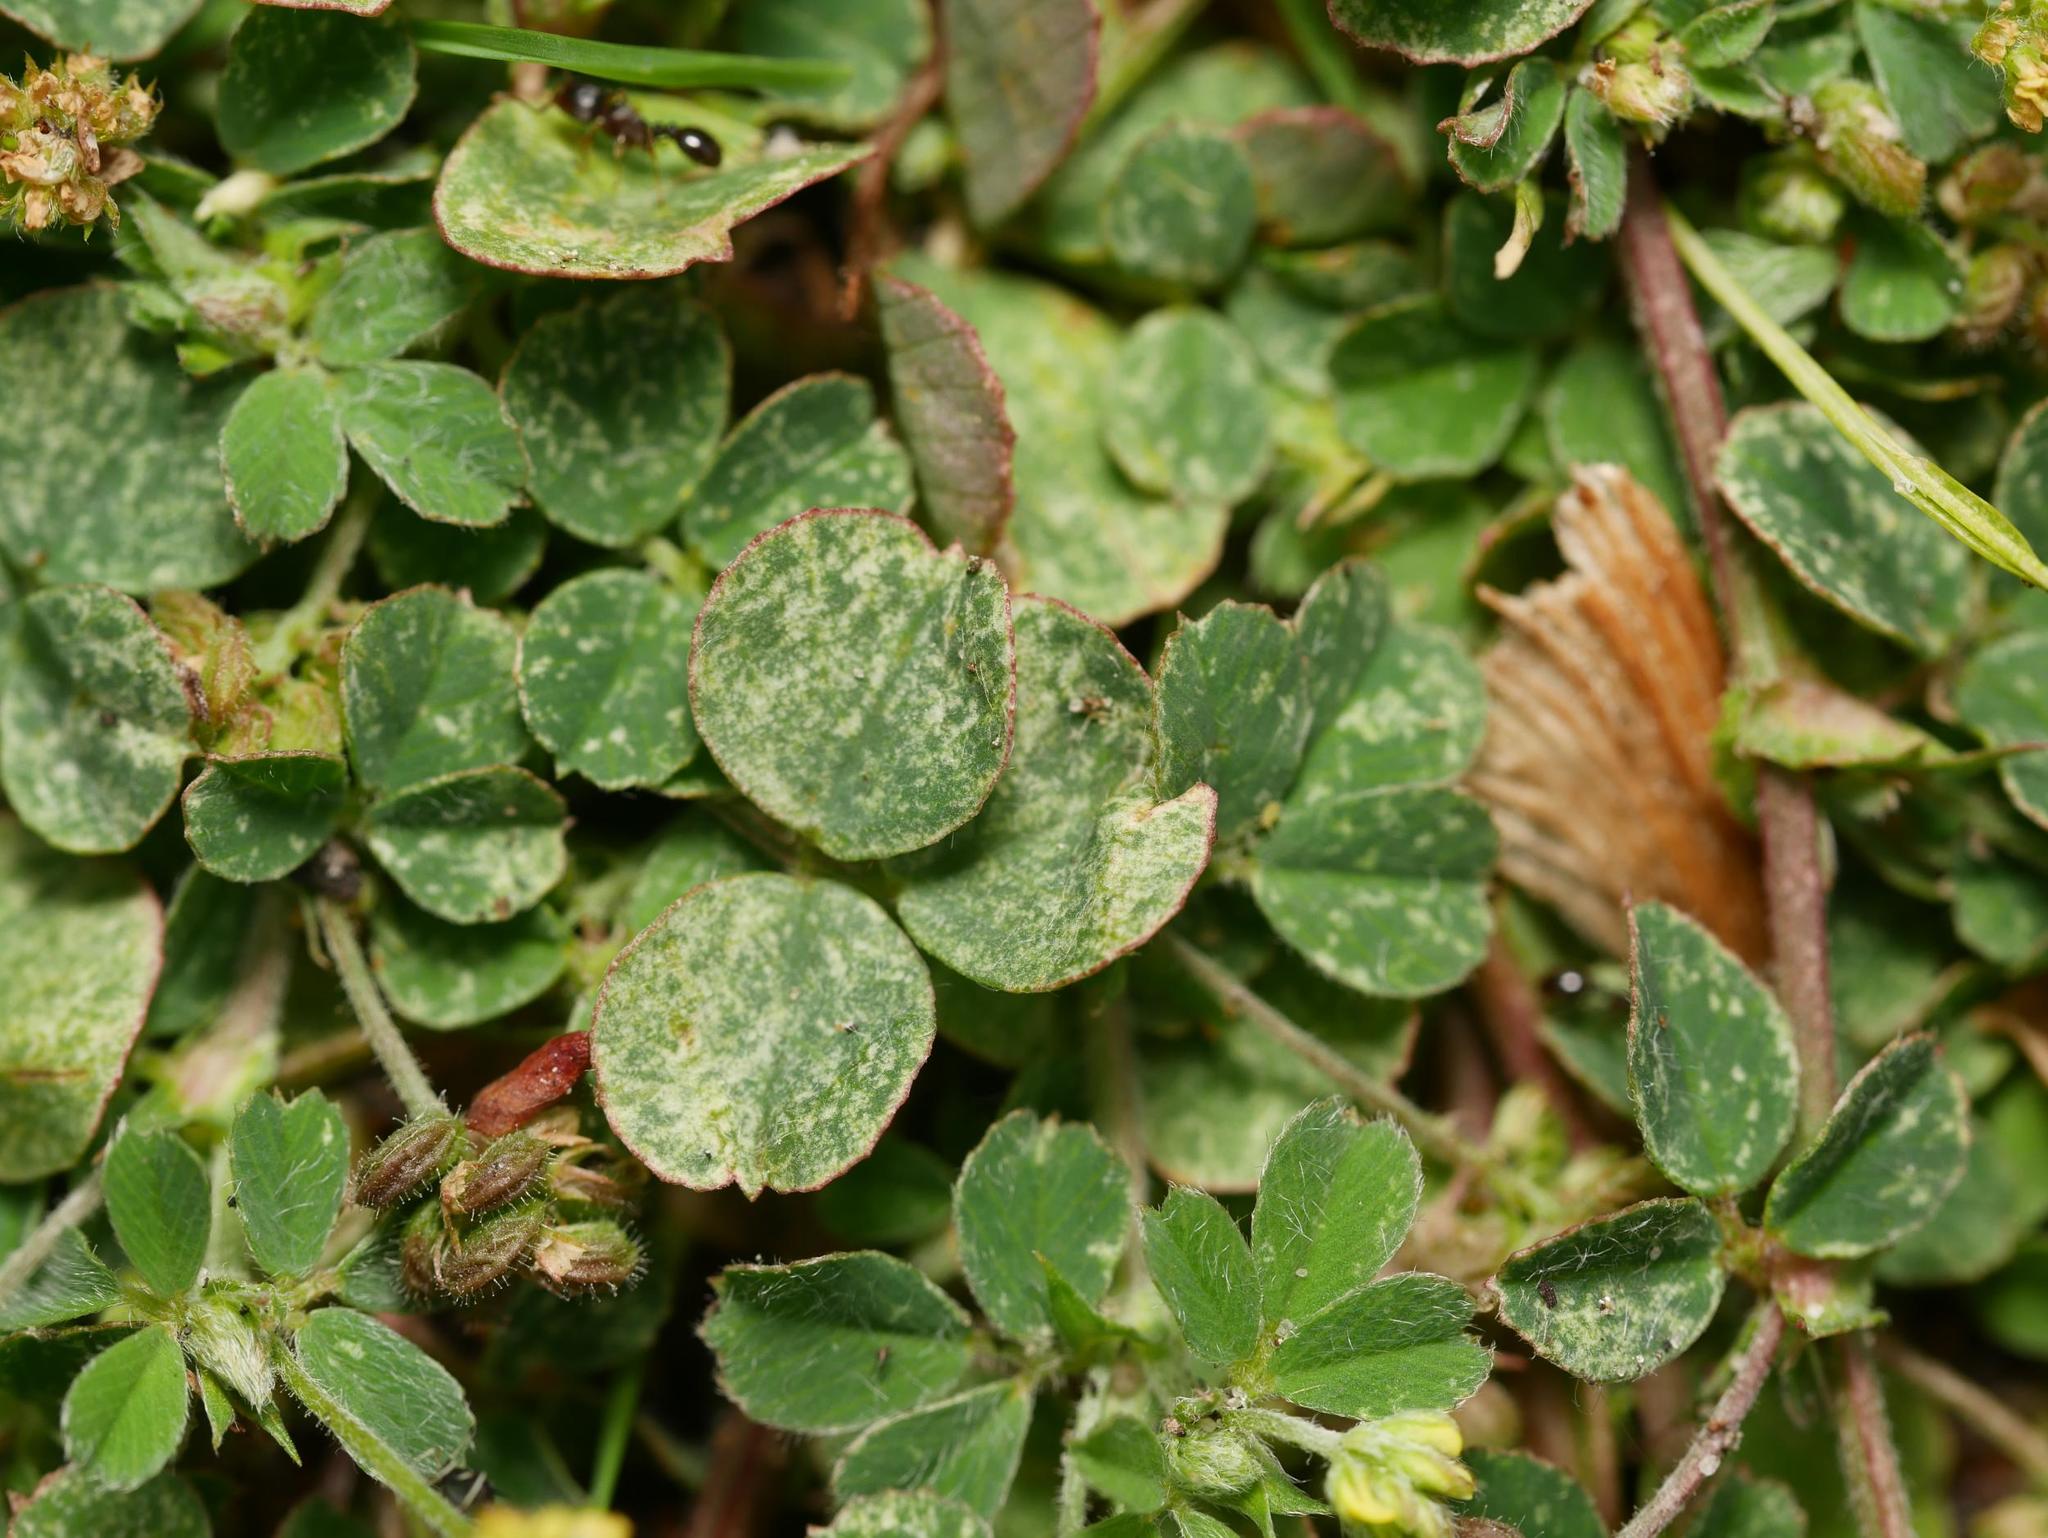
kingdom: Animalia
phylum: Arthropoda
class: Arachnida
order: Trombidiformes
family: Tetranychidae
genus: Bryobia
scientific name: Bryobia praetiosa
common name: Clover mite
